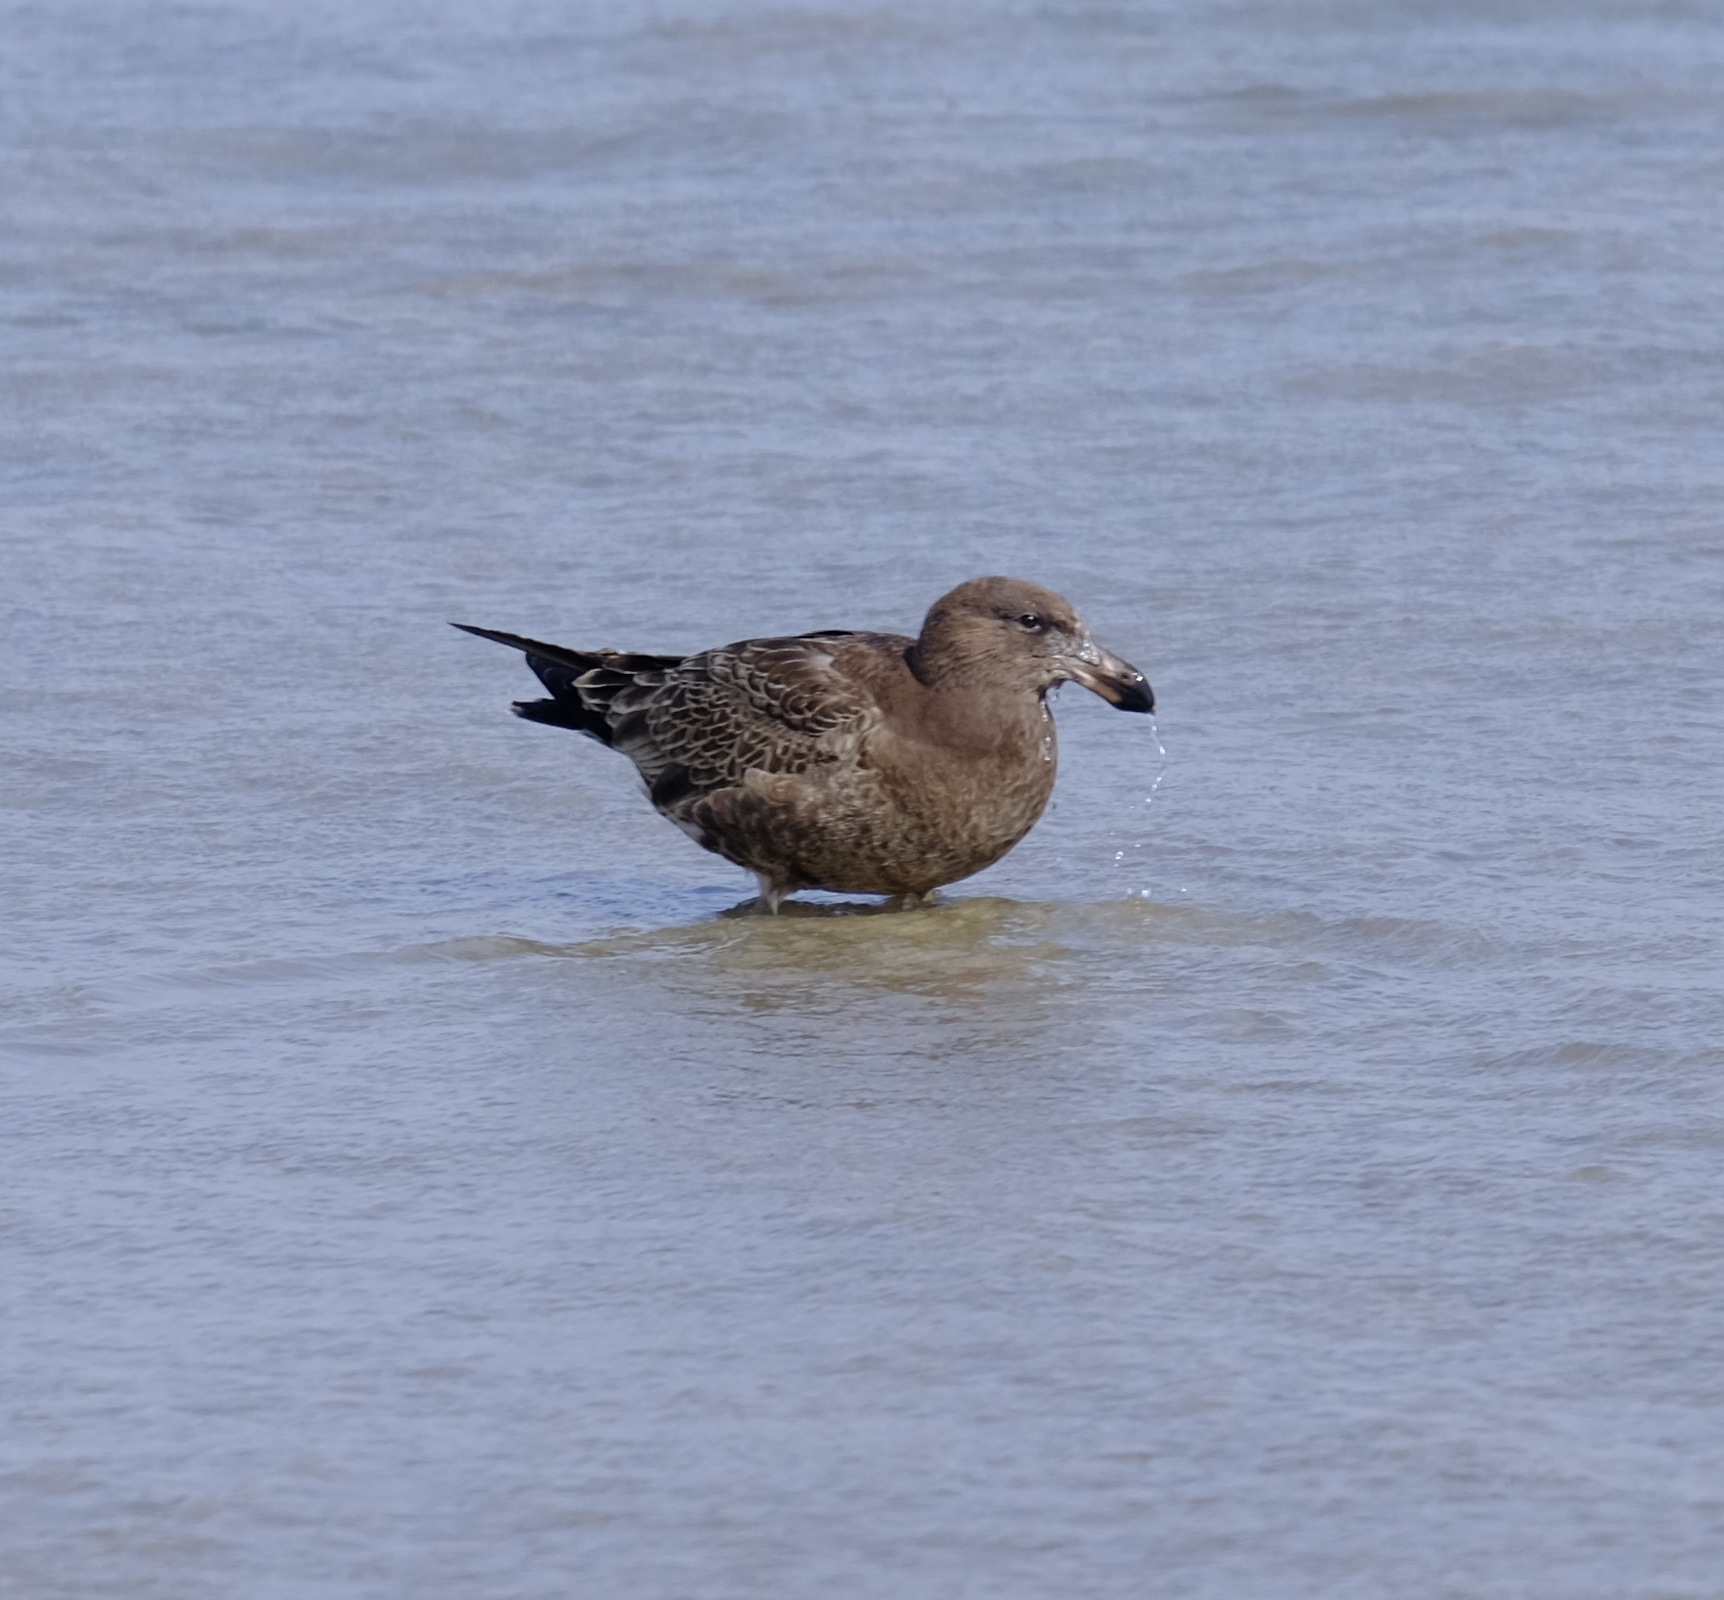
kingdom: Animalia
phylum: Chordata
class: Aves
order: Charadriiformes
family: Laridae
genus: Larus
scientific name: Larus pacificus
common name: Pacific gull
